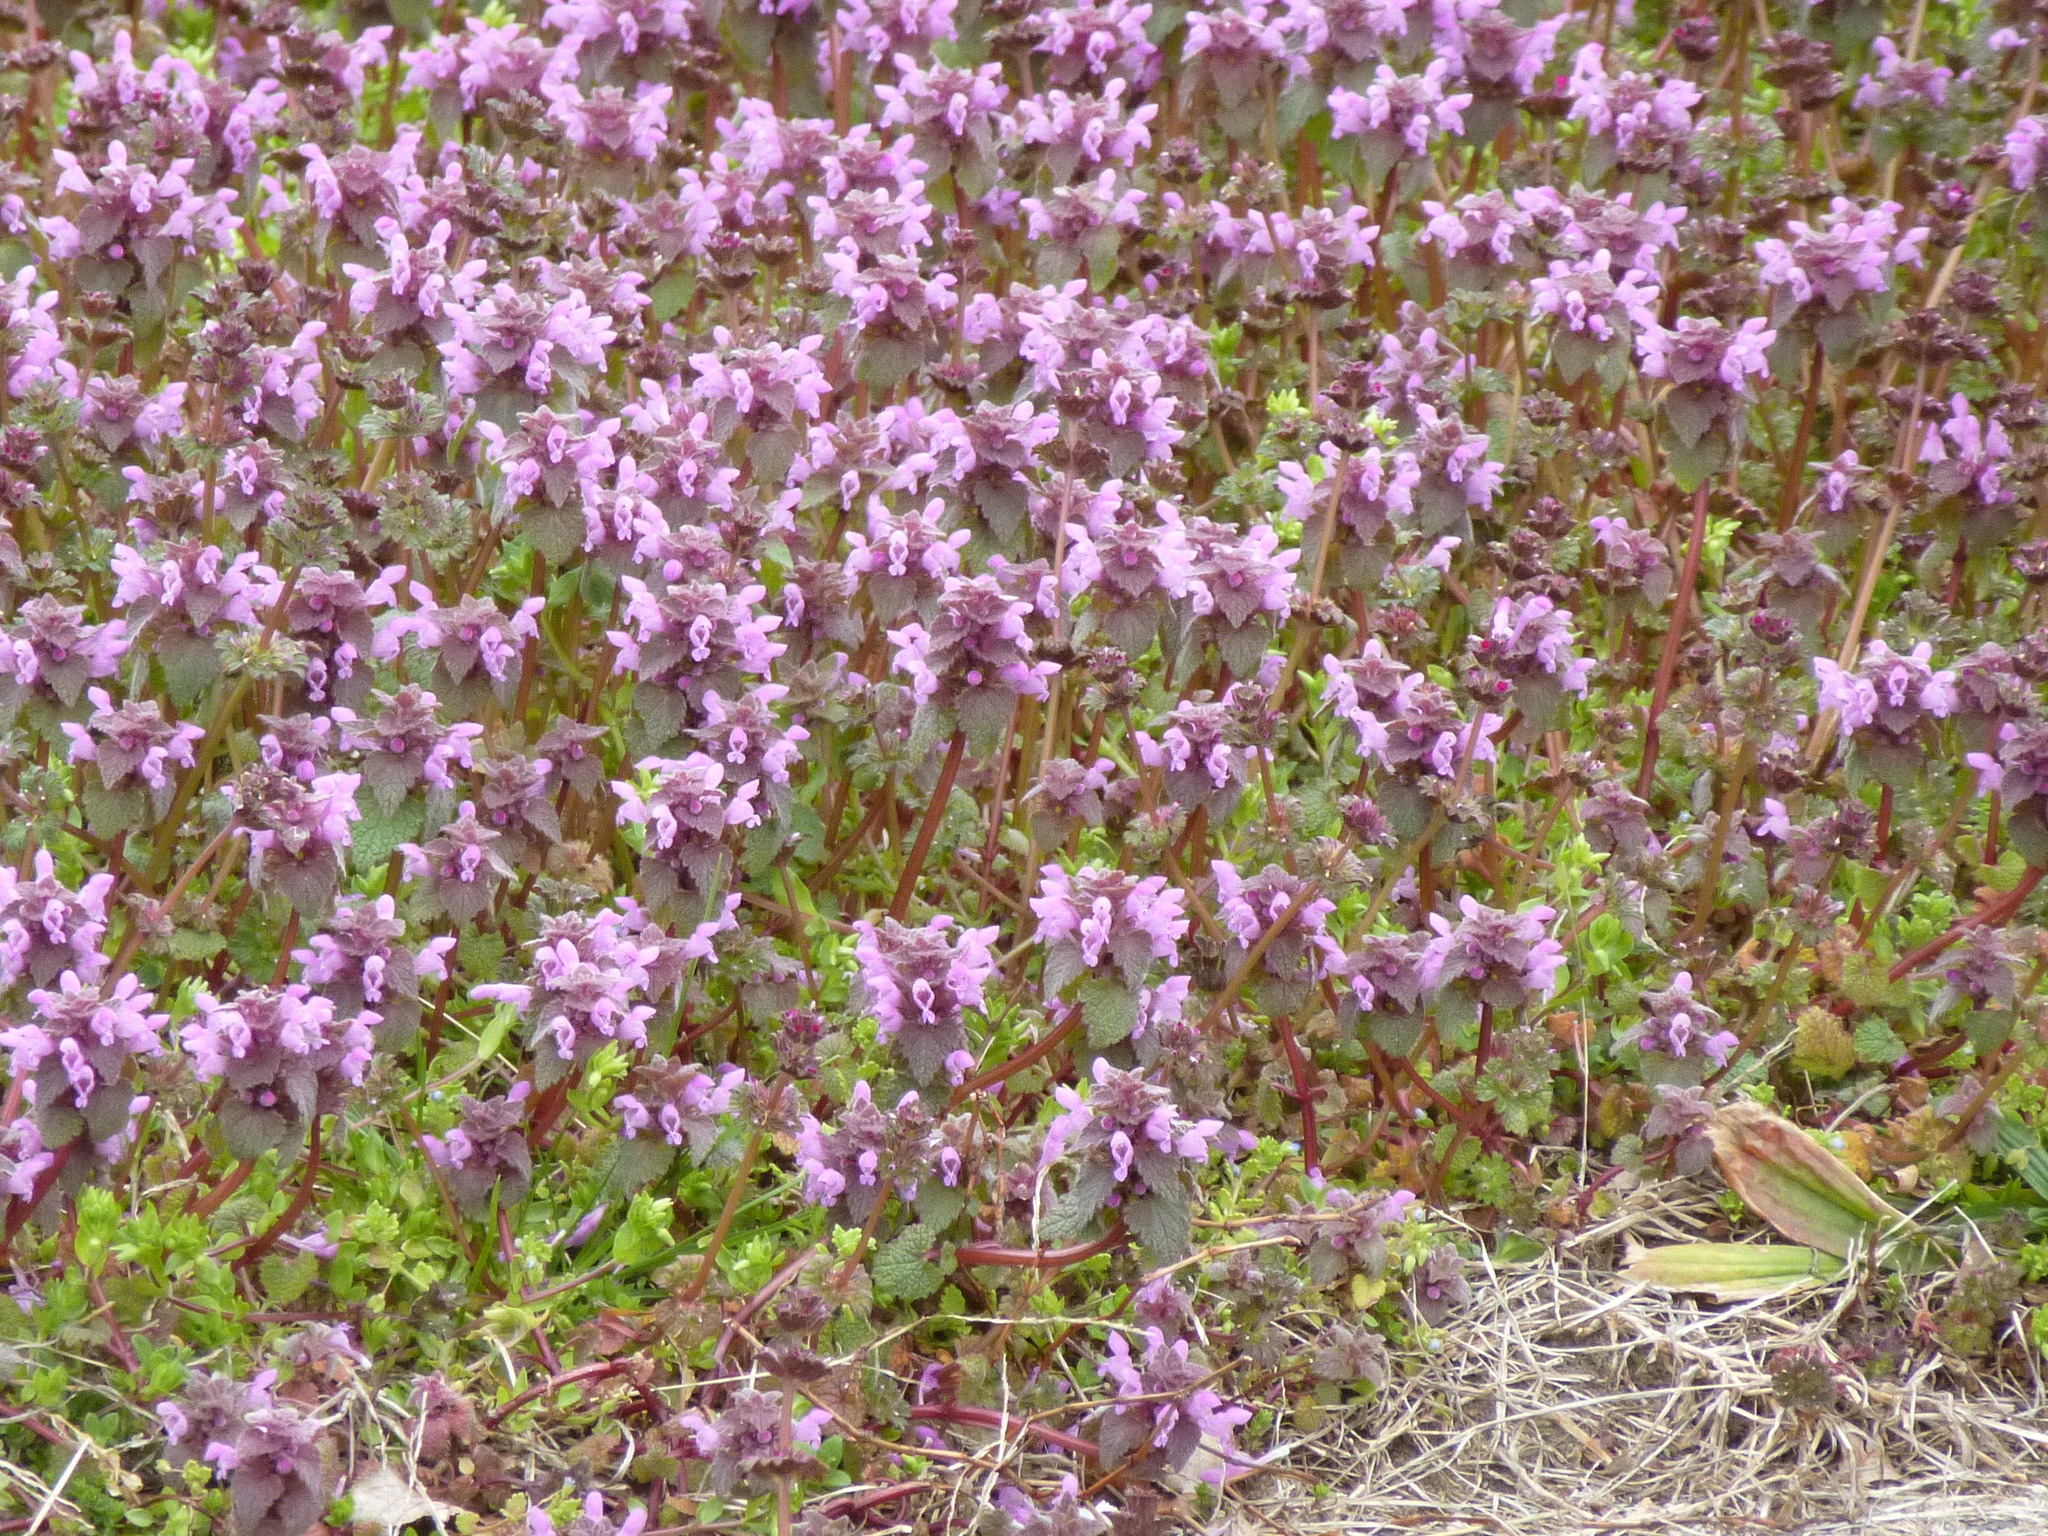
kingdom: Plantae
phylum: Tracheophyta
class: Magnoliopsida
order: Lamiales
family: Lamiaceae
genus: Lamium
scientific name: Lamium purpureum
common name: Red dead-nettle
